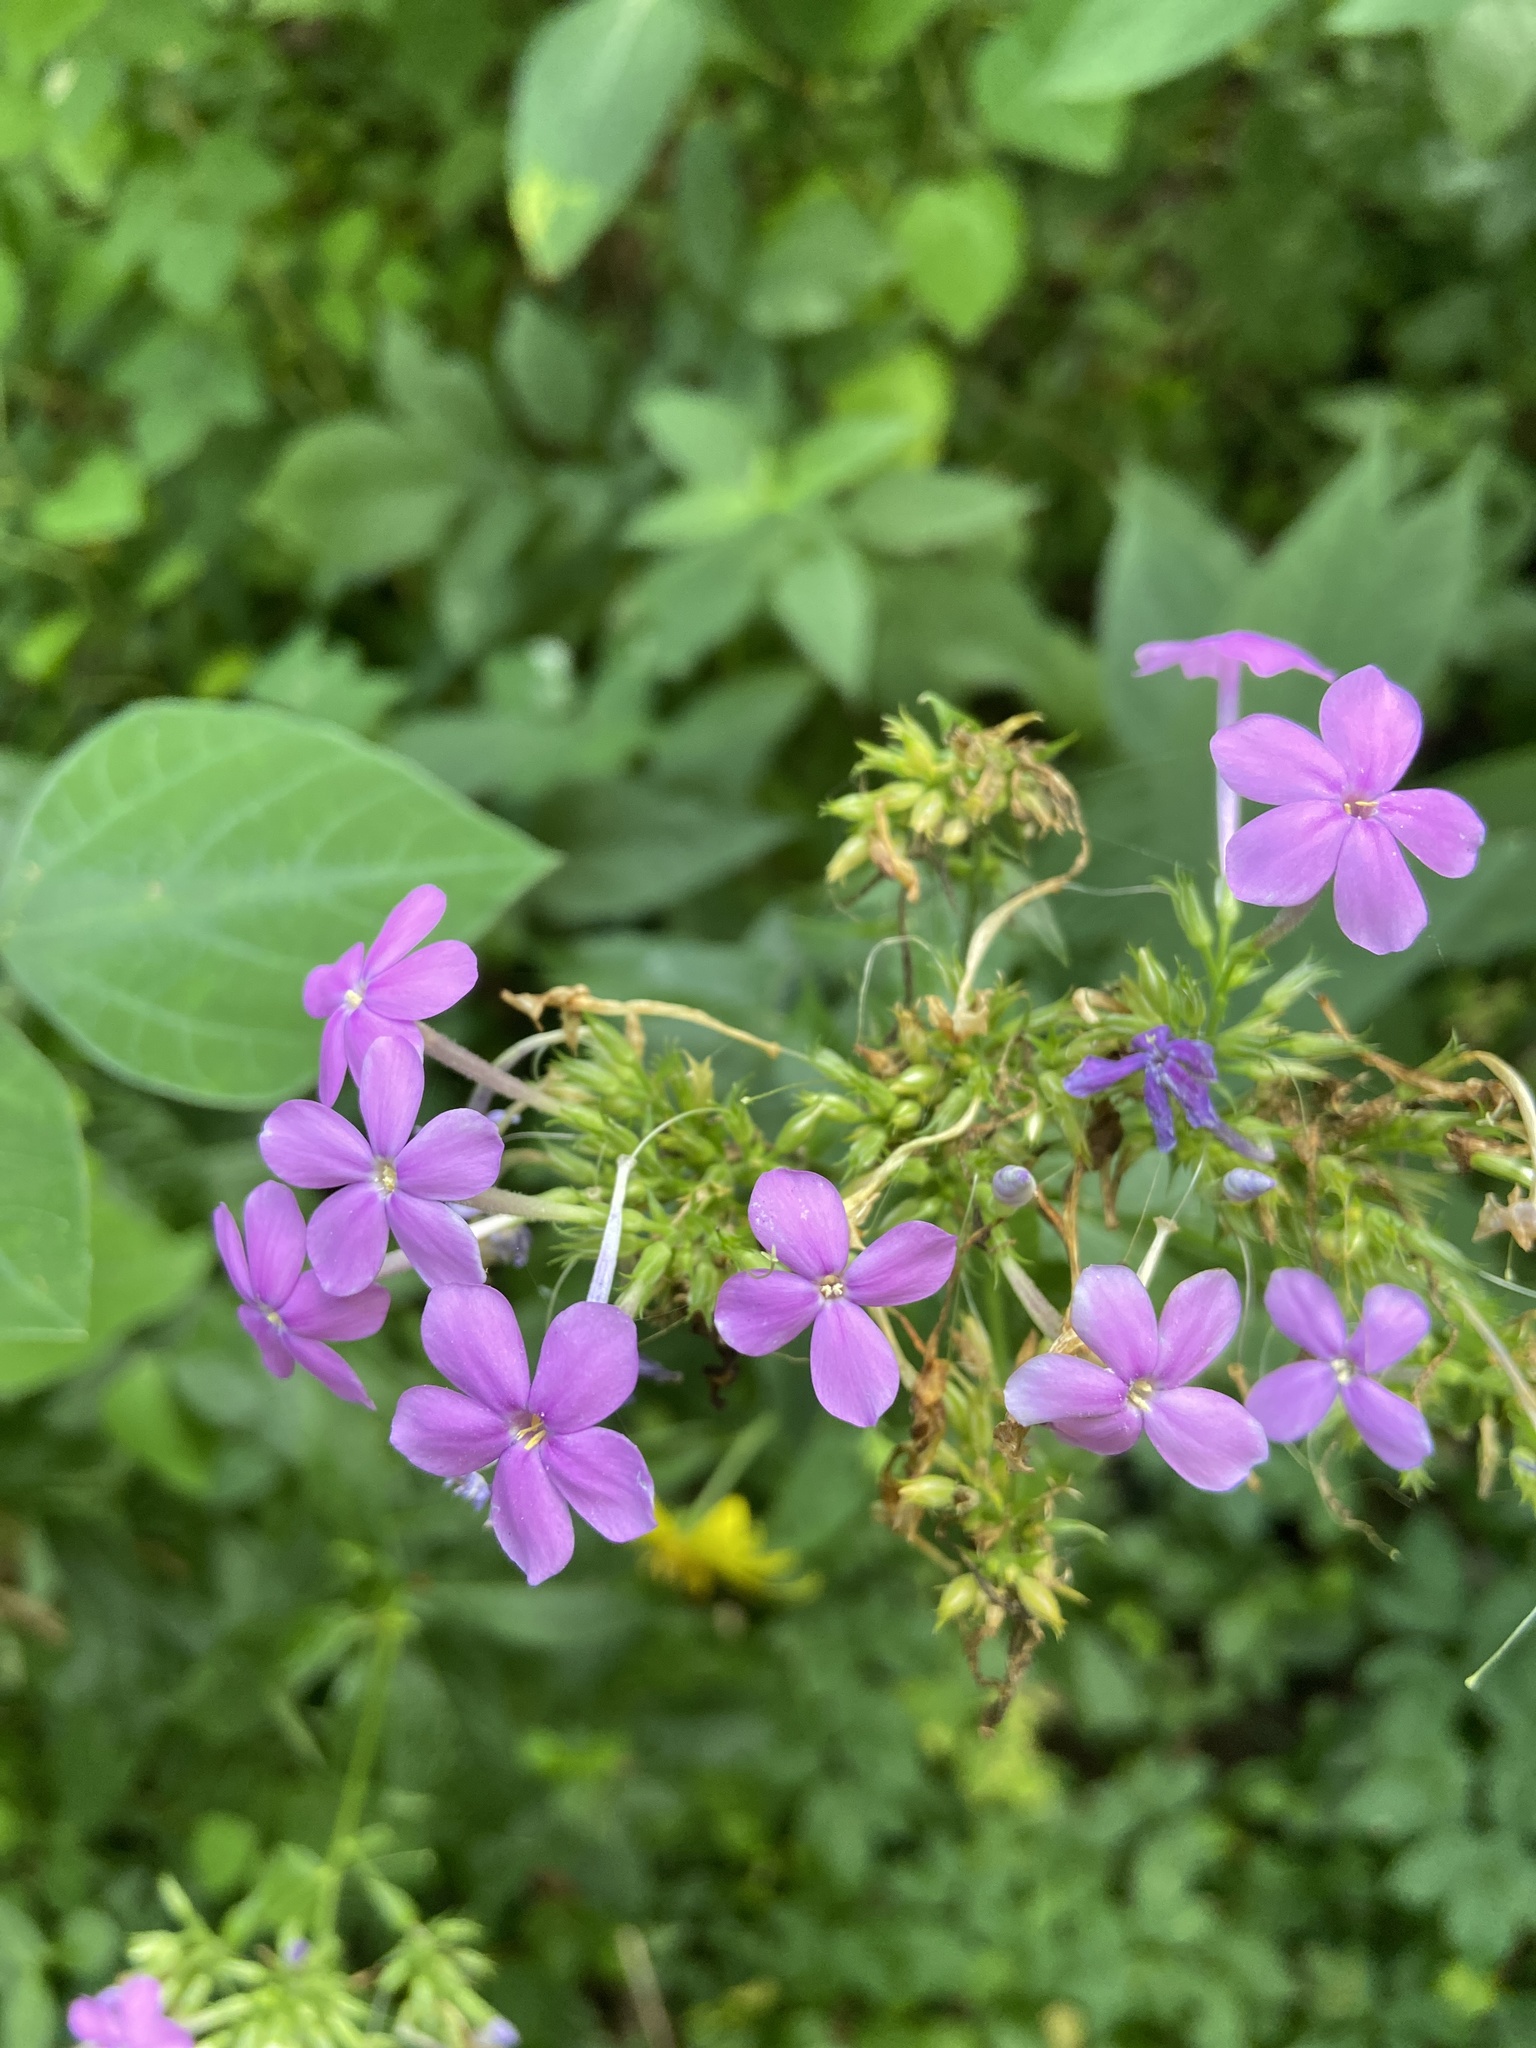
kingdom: Plantae
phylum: Tracheophyta
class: Magnoliopsida
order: Ericales
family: Polemoniaceae
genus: Phlox
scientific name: Phlox paniculata
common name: Fall phlox
